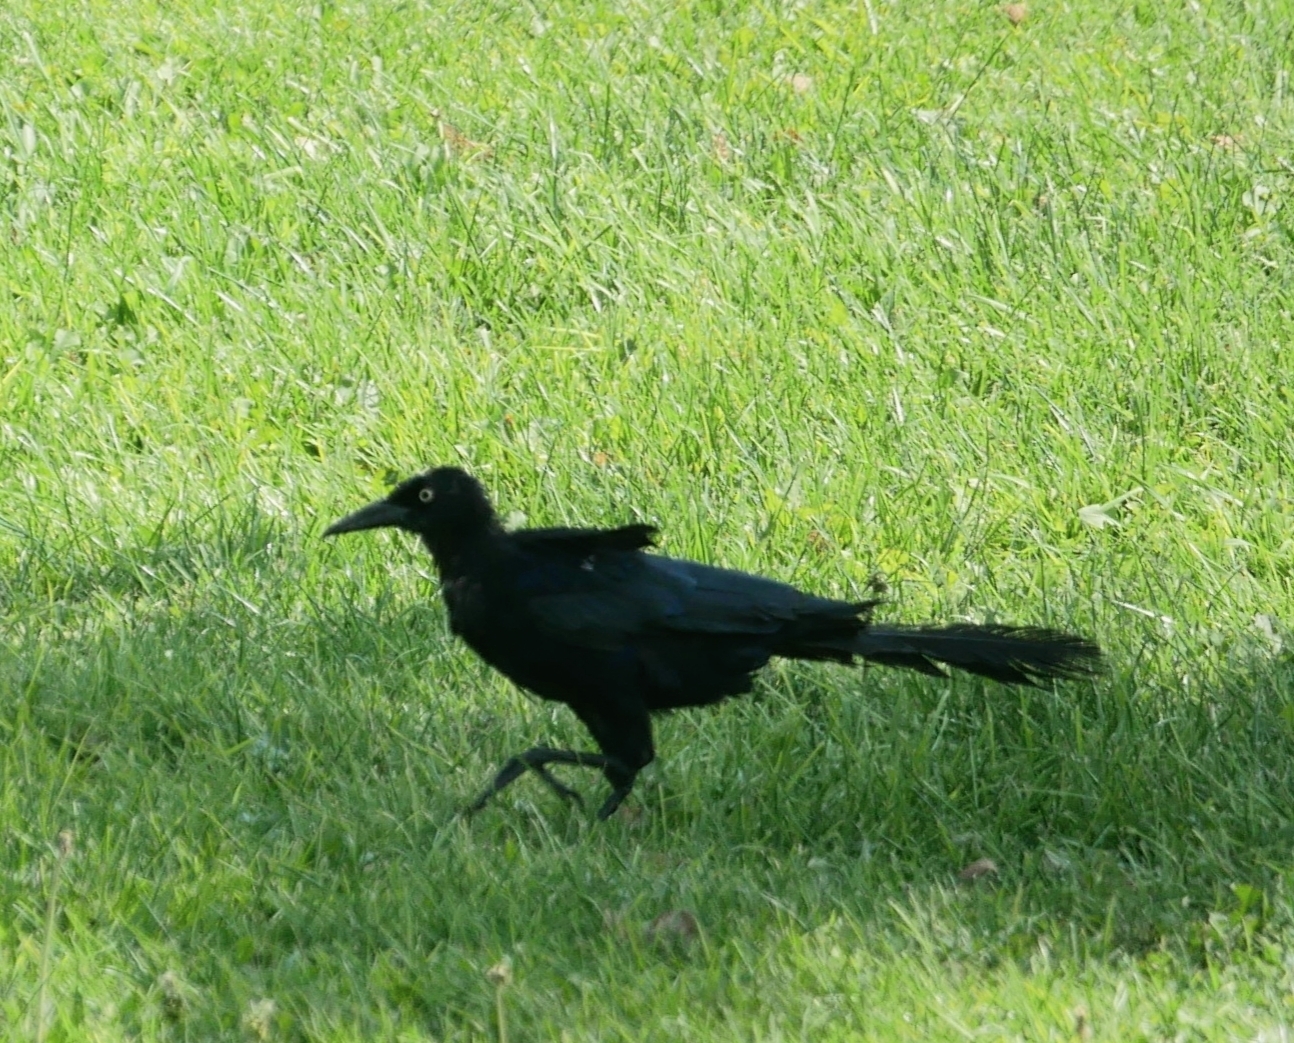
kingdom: Animalia
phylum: Chordata
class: Aves
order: Passeriformes
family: Icteridae
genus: Quiscalus
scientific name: Quiscalus mexicanus
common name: Great-tailed grackle
